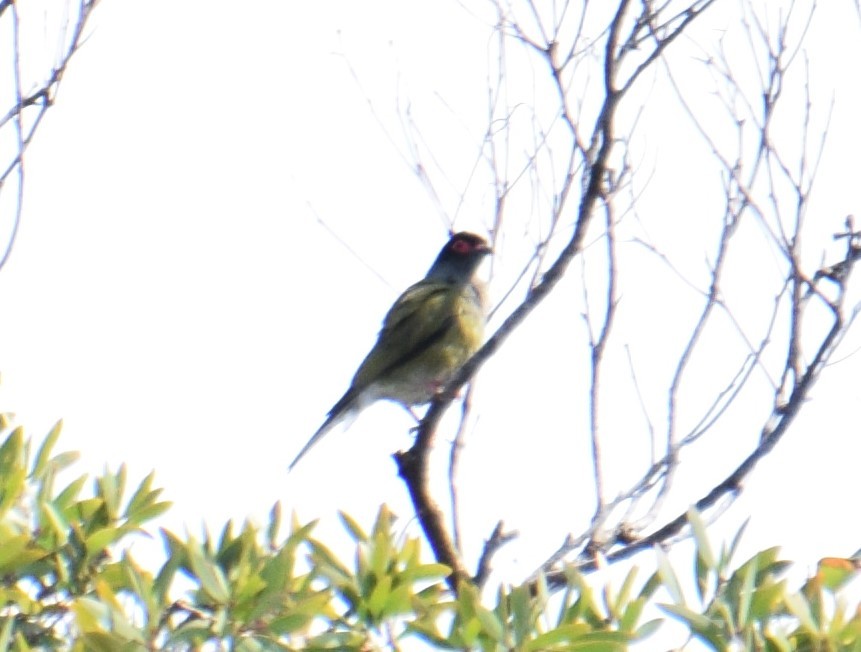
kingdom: Animalia
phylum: Chordata
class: Aves
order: Passeriformes
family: Oriolidae
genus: Sphecotheres
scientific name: Sphecotheres vieilloti
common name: Australasian figbird
